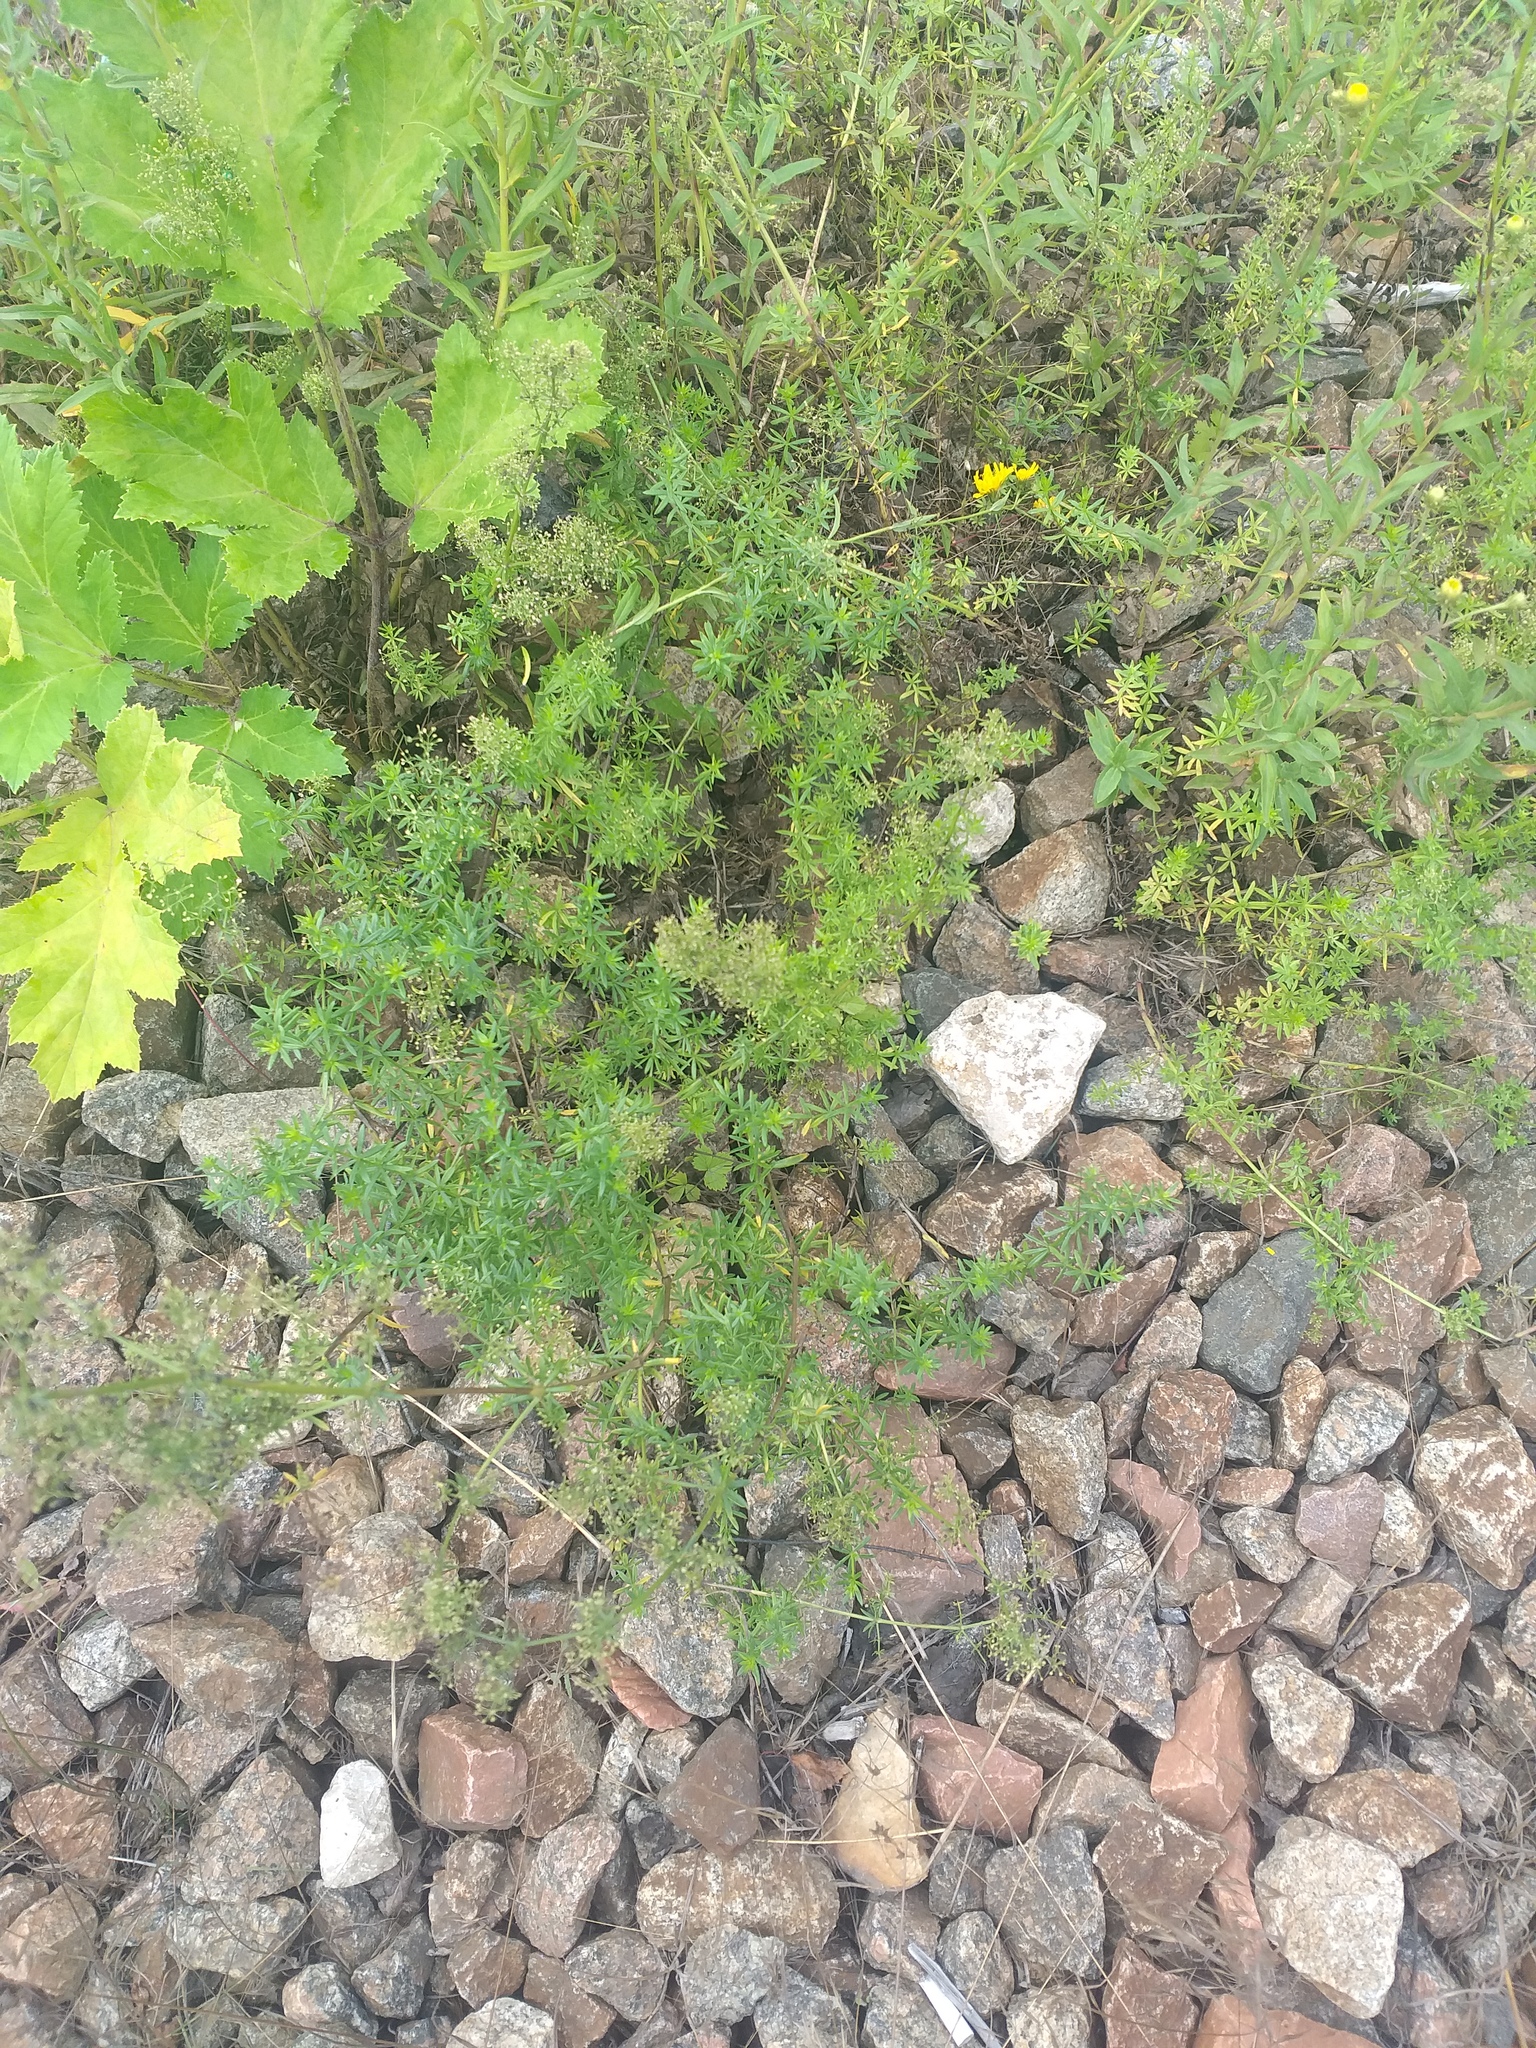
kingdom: Plantae
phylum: Tracheophyta
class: Magnoliopsida
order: Gentianales
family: Rubiaceae
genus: Galium
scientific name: Galium mollugo
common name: Hedge bedstraw
